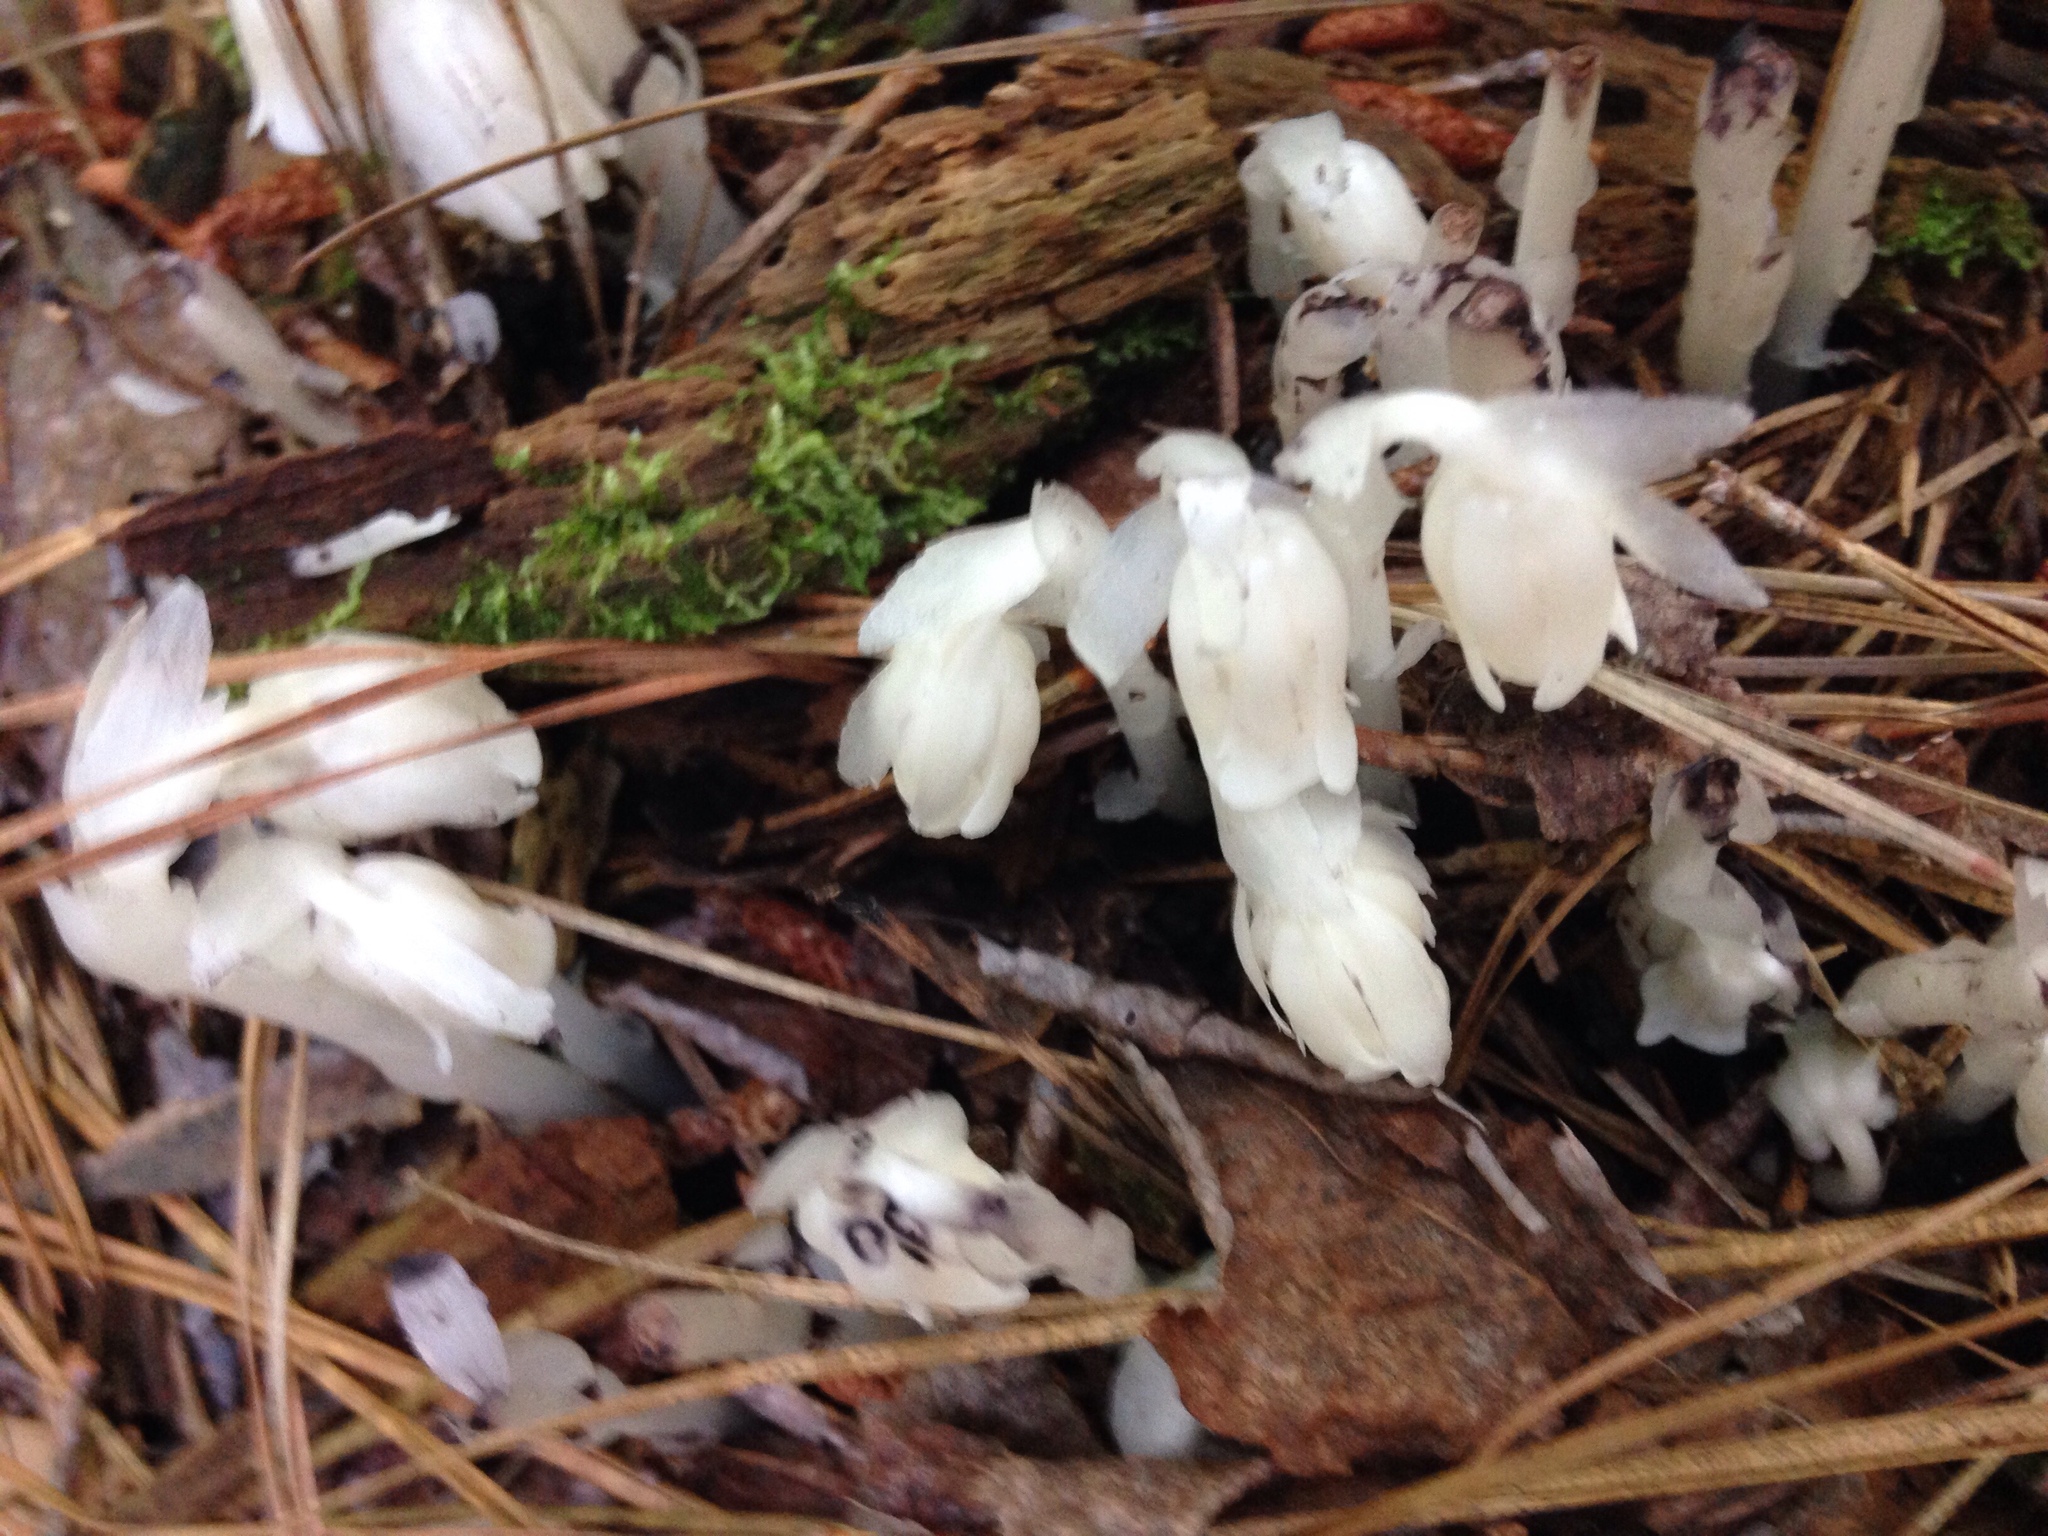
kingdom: Plantae
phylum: Tracheophyta
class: Magnoliopsida
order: Ericales
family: Ericaceae
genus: Monotropa
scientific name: Monotropa uniflora
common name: Convulsion root
